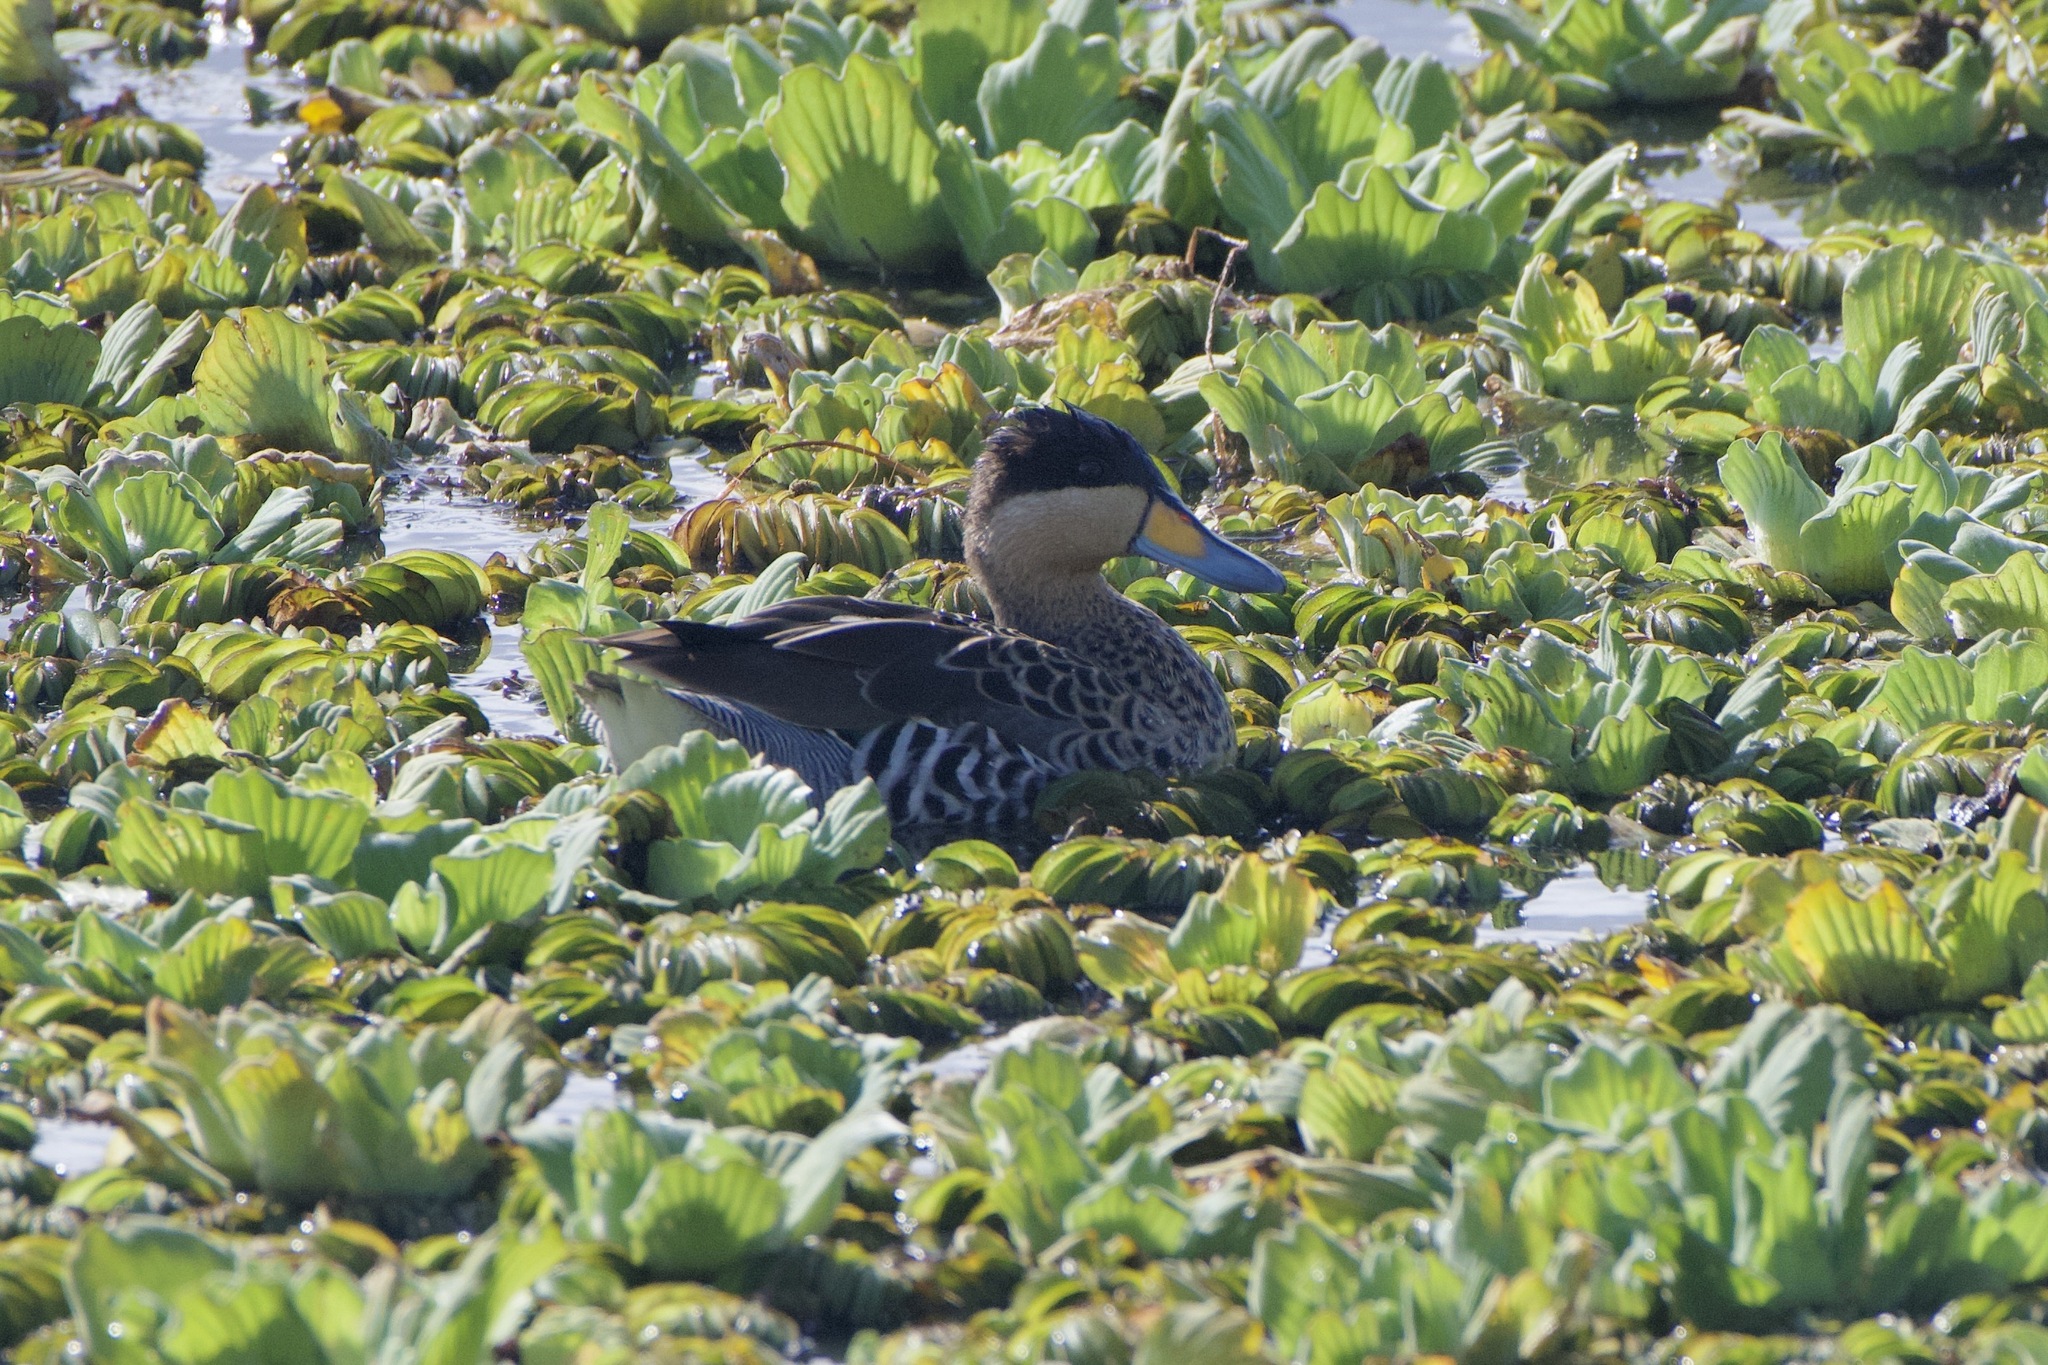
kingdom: Animalia
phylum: Chordata
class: Aves
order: Anseriformes
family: Anatidae
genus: Spatula
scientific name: Spatula versicolor
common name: Silver teal
